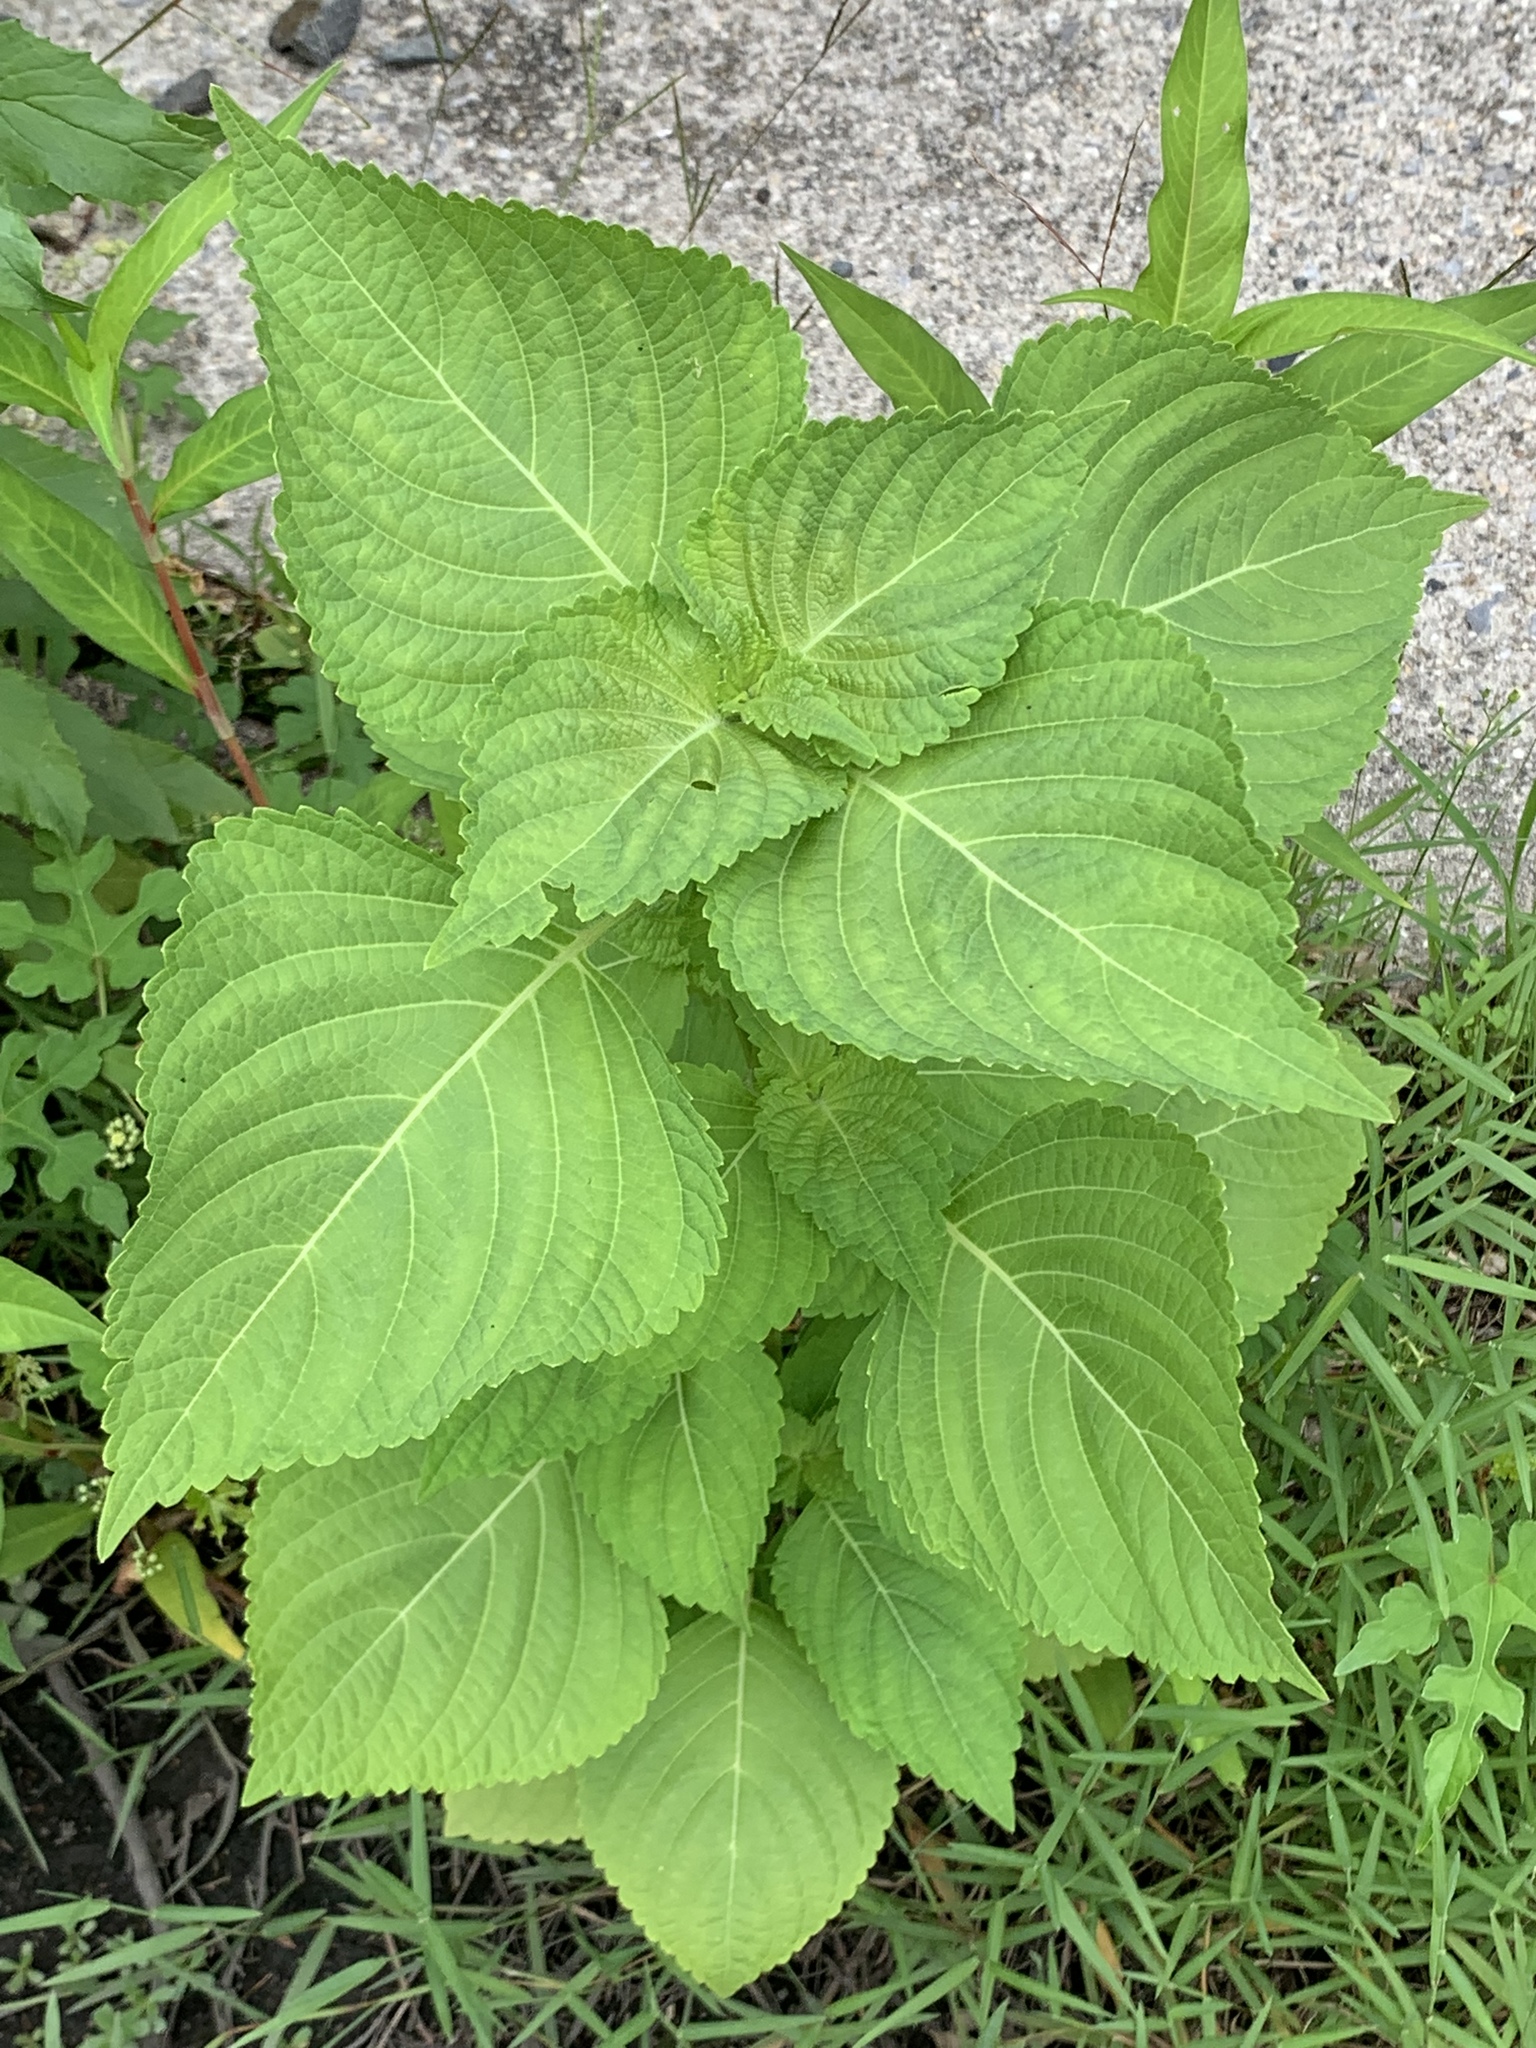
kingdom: Plantae
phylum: Tracheophyta
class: Magnoliopsida
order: Lamiales
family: Lamiaceae
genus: Perilla
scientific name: Perilla frutescens
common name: Perilla
